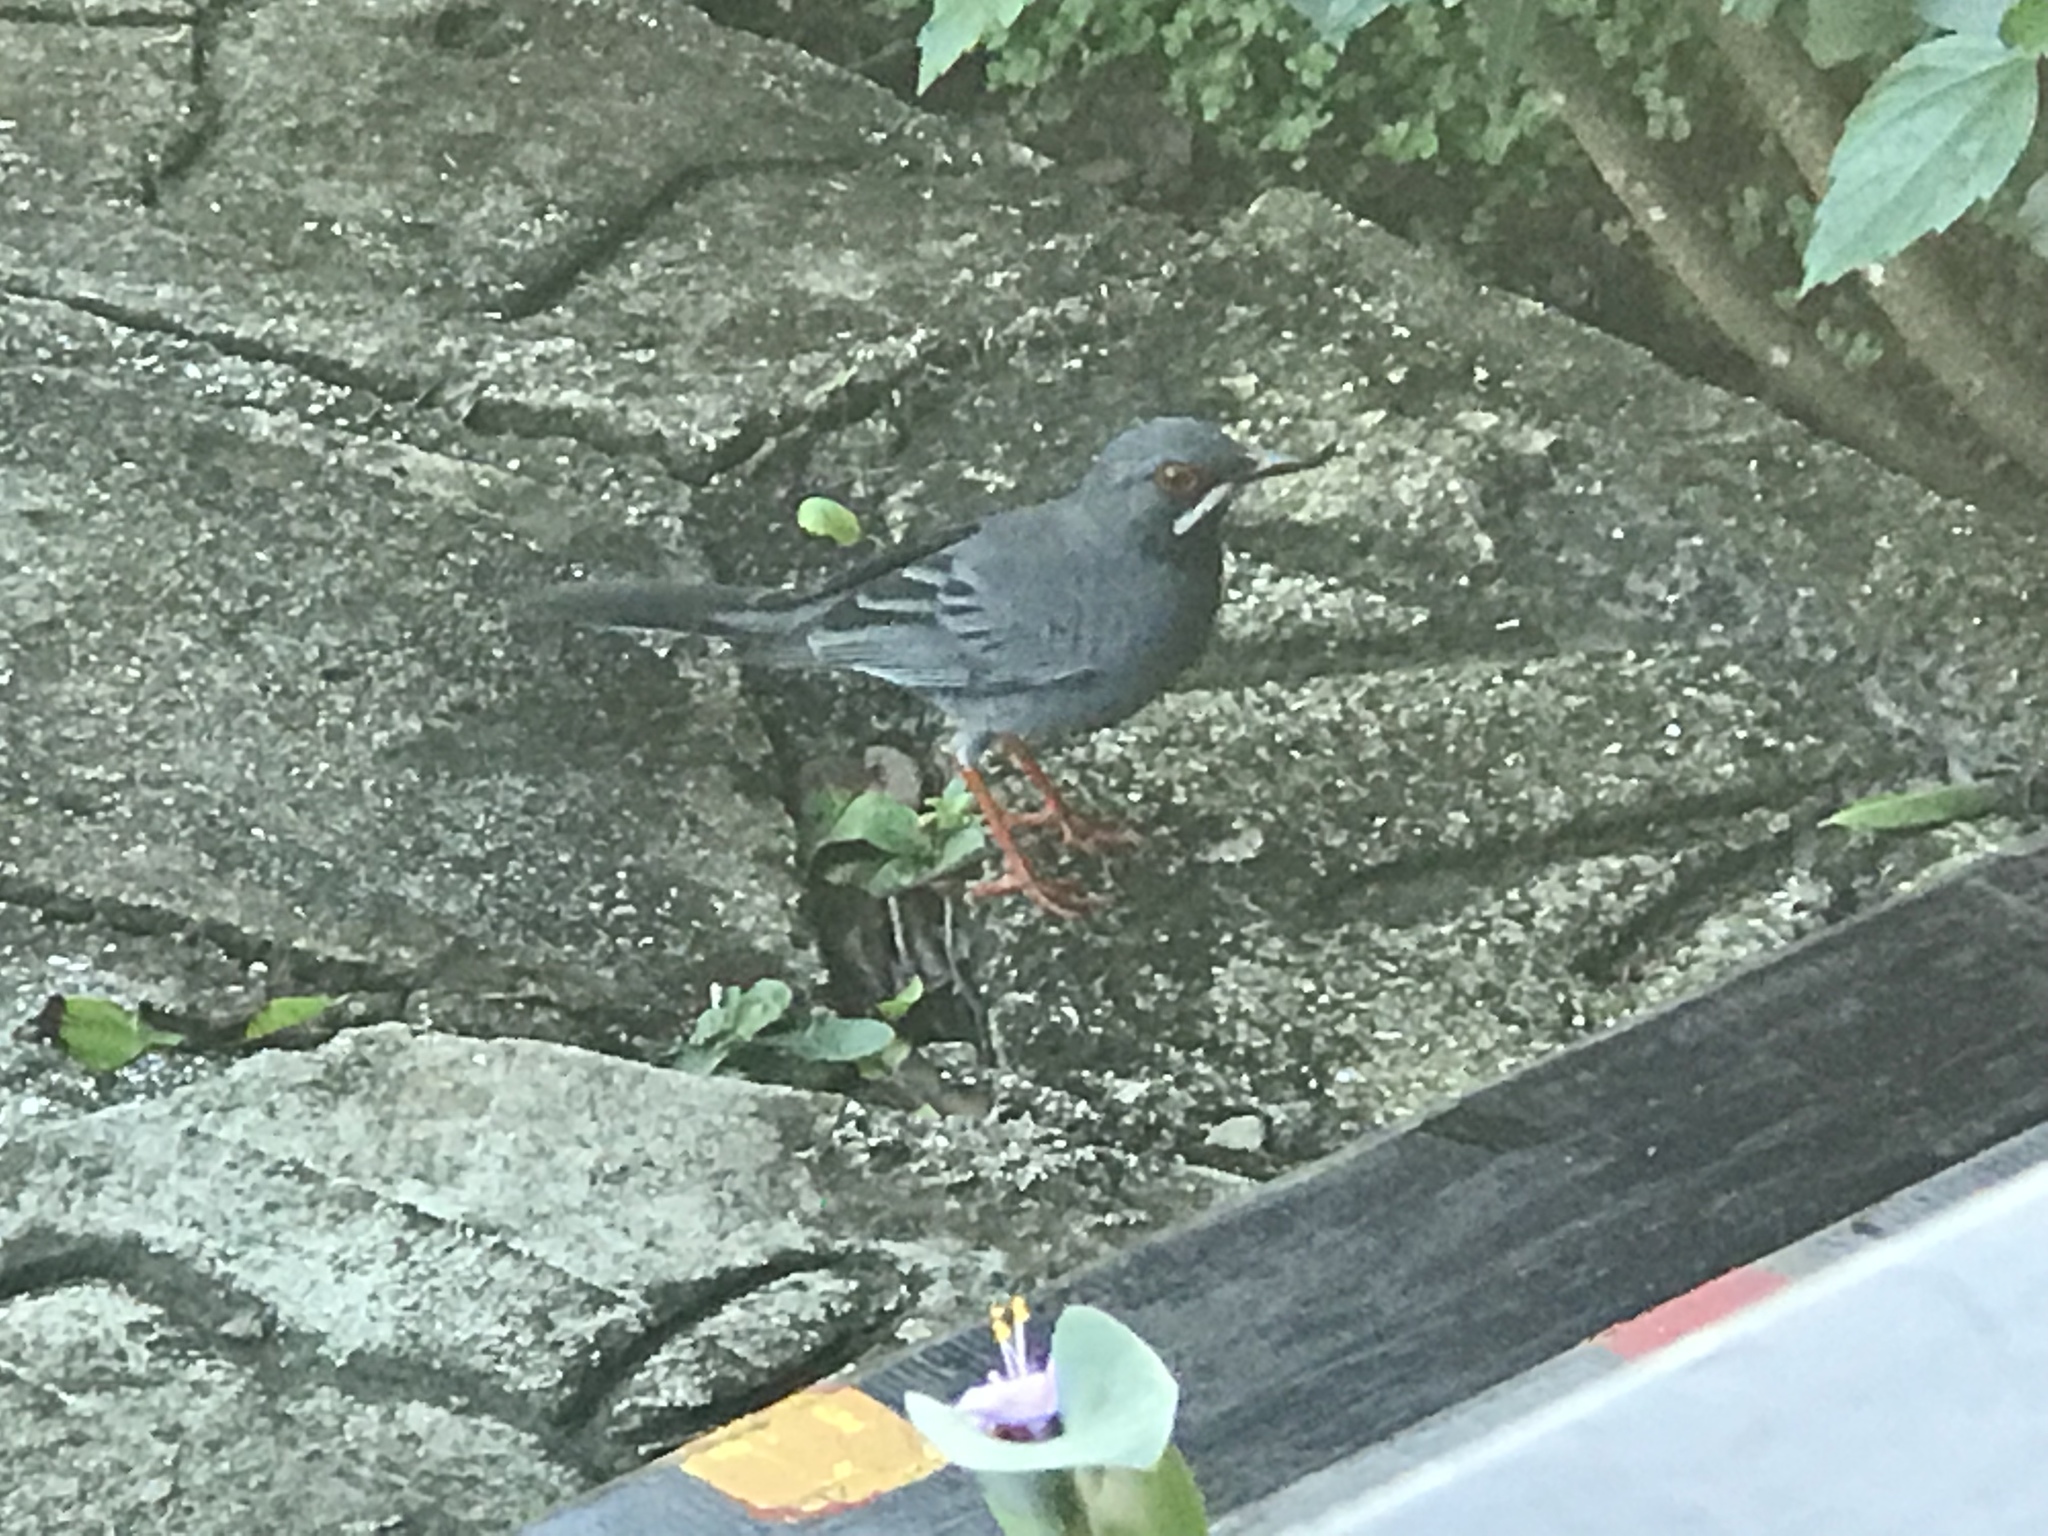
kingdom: Animalia
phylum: Chordata
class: Aves
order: Passeriformes
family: Turdidae
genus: Turdus
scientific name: Turdus plumbeus
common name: Red-legged thrush
